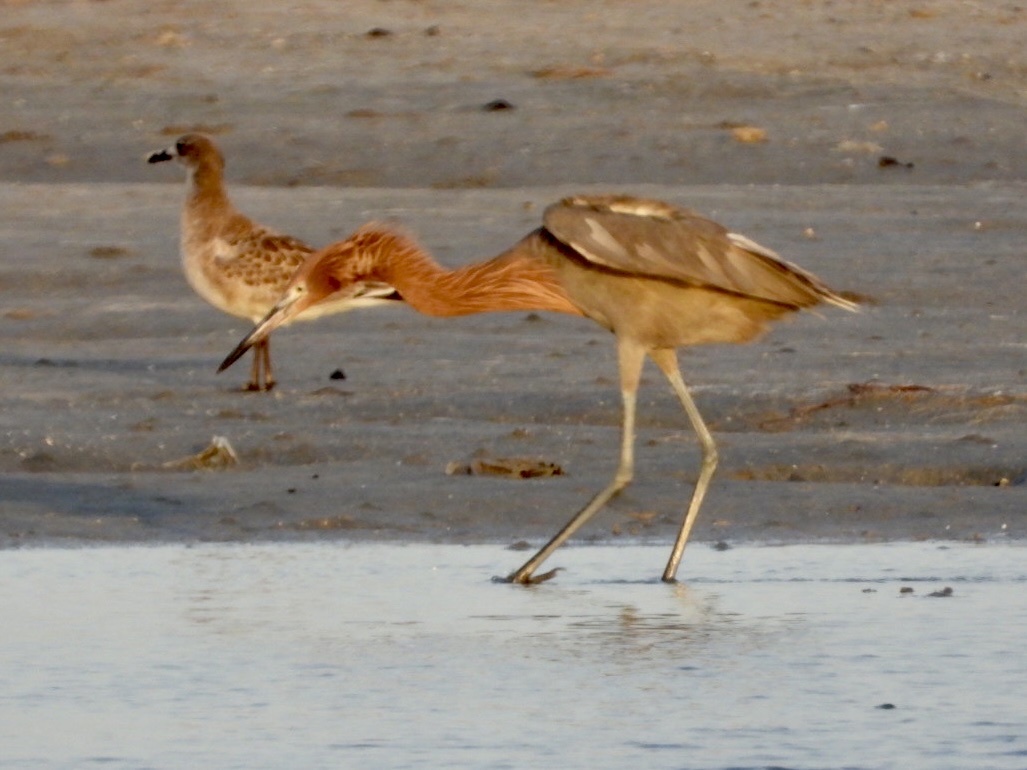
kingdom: Animalia
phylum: Chordata
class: Aves
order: Pelecaniformes
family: Ardeidae
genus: Egretta
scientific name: Egretta rufescens
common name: Reddish egret
